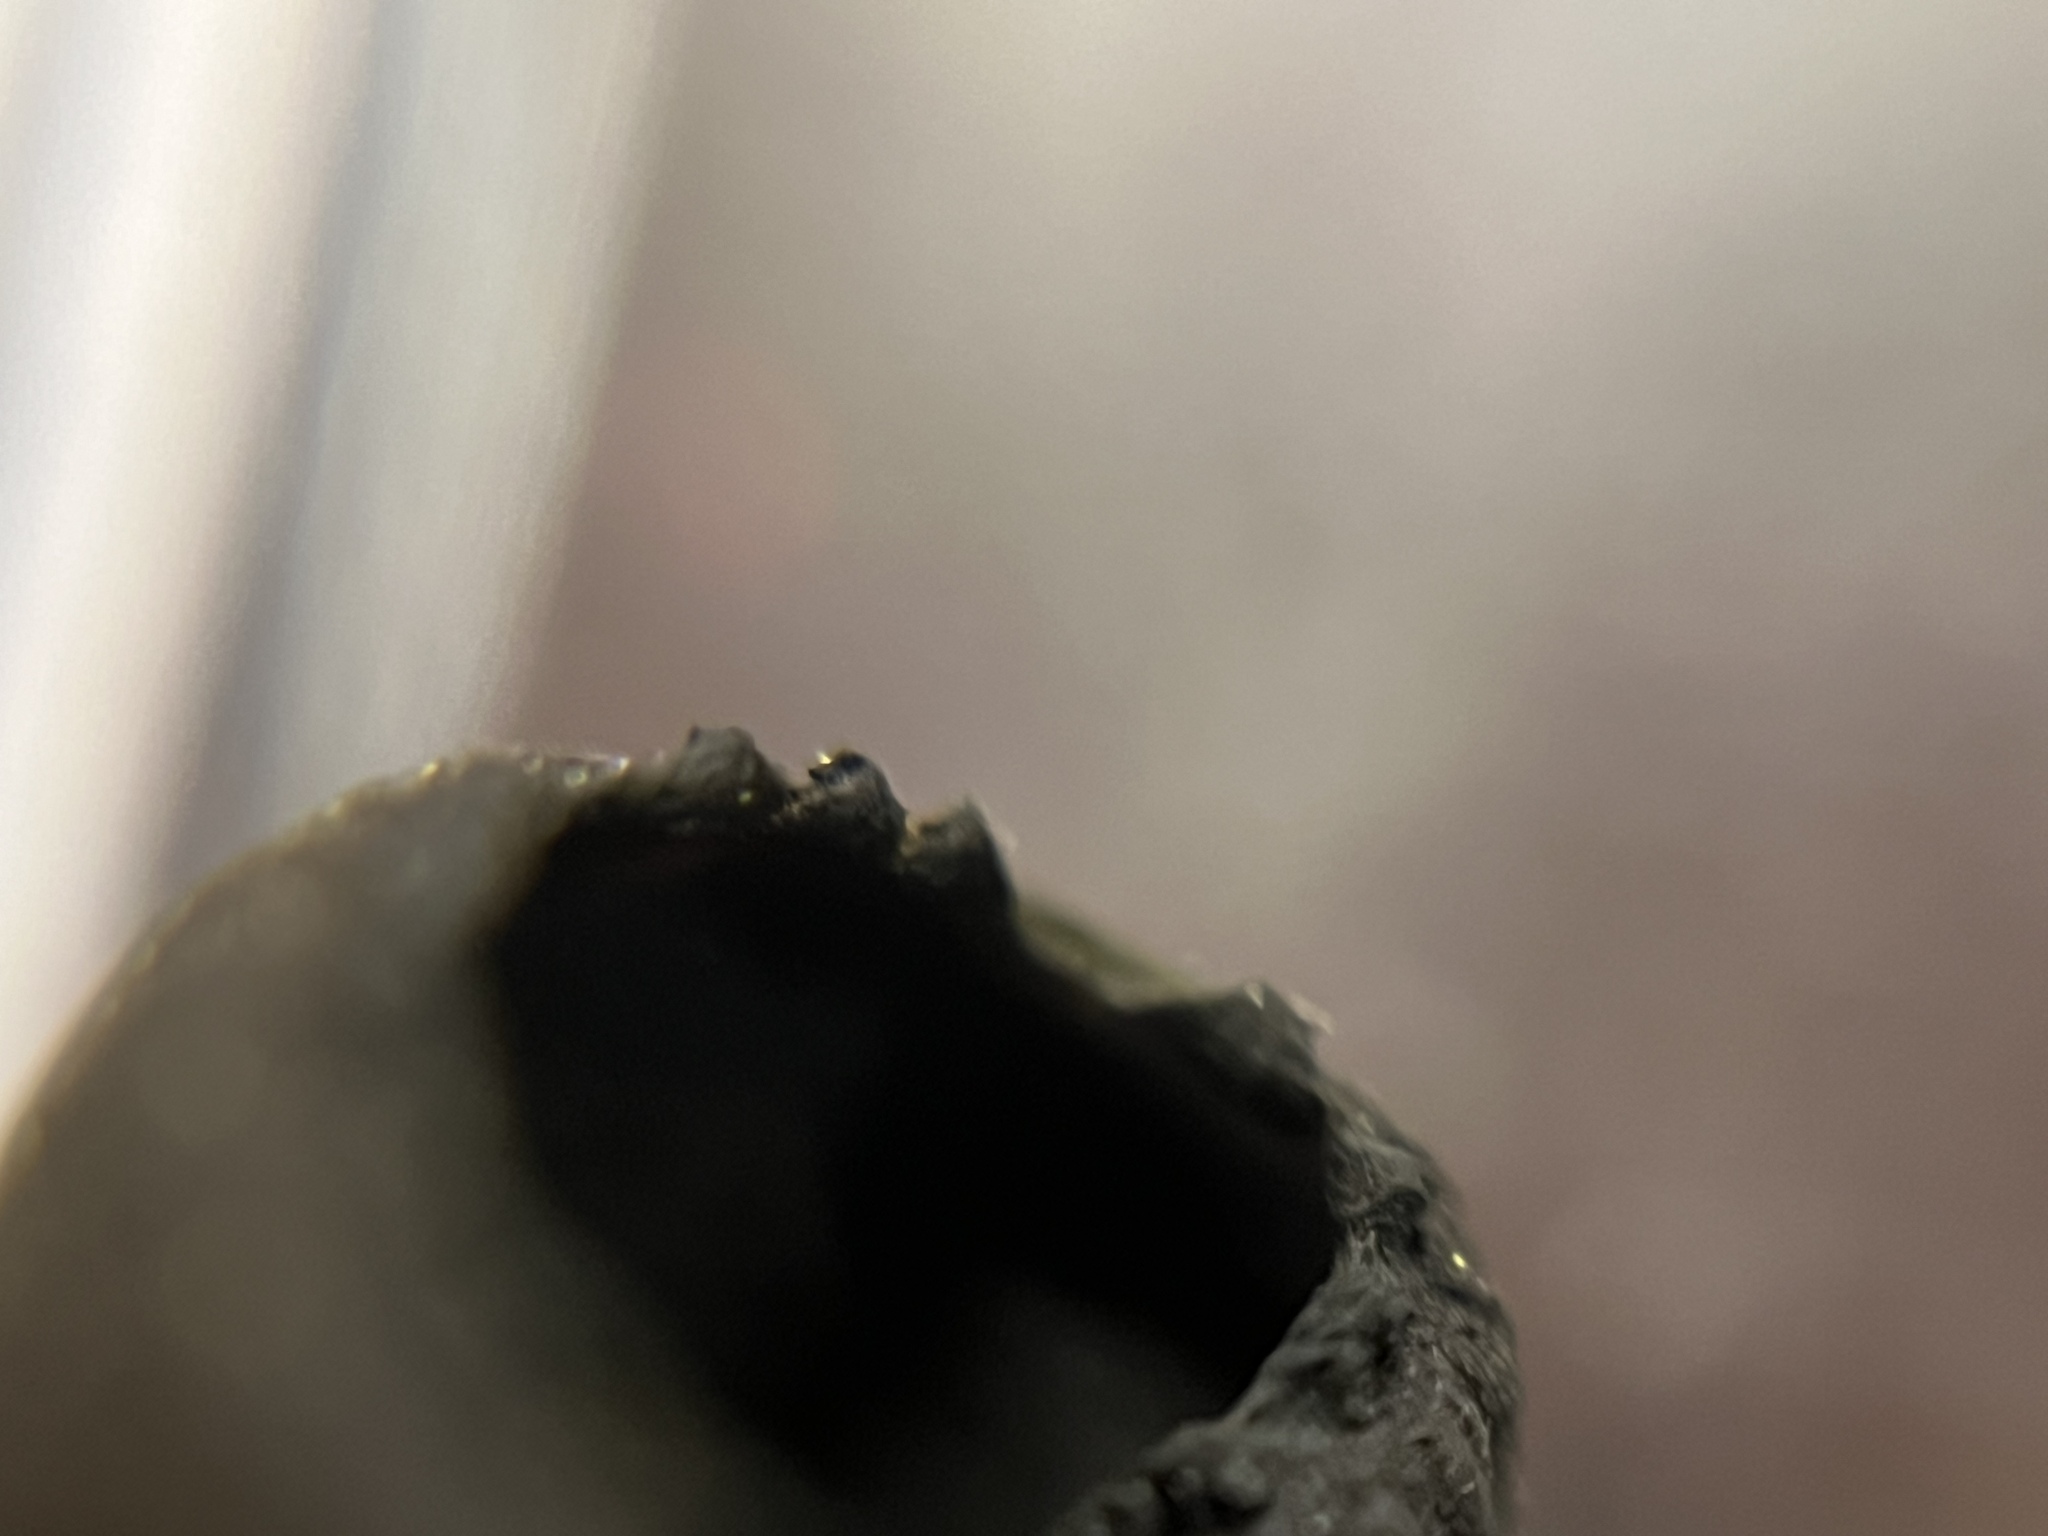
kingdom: Fungi
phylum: Ascomycota
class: Pezizomycetes
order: Pezizales
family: Sarcosomataceae
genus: Plectania
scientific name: Plectania milleri
